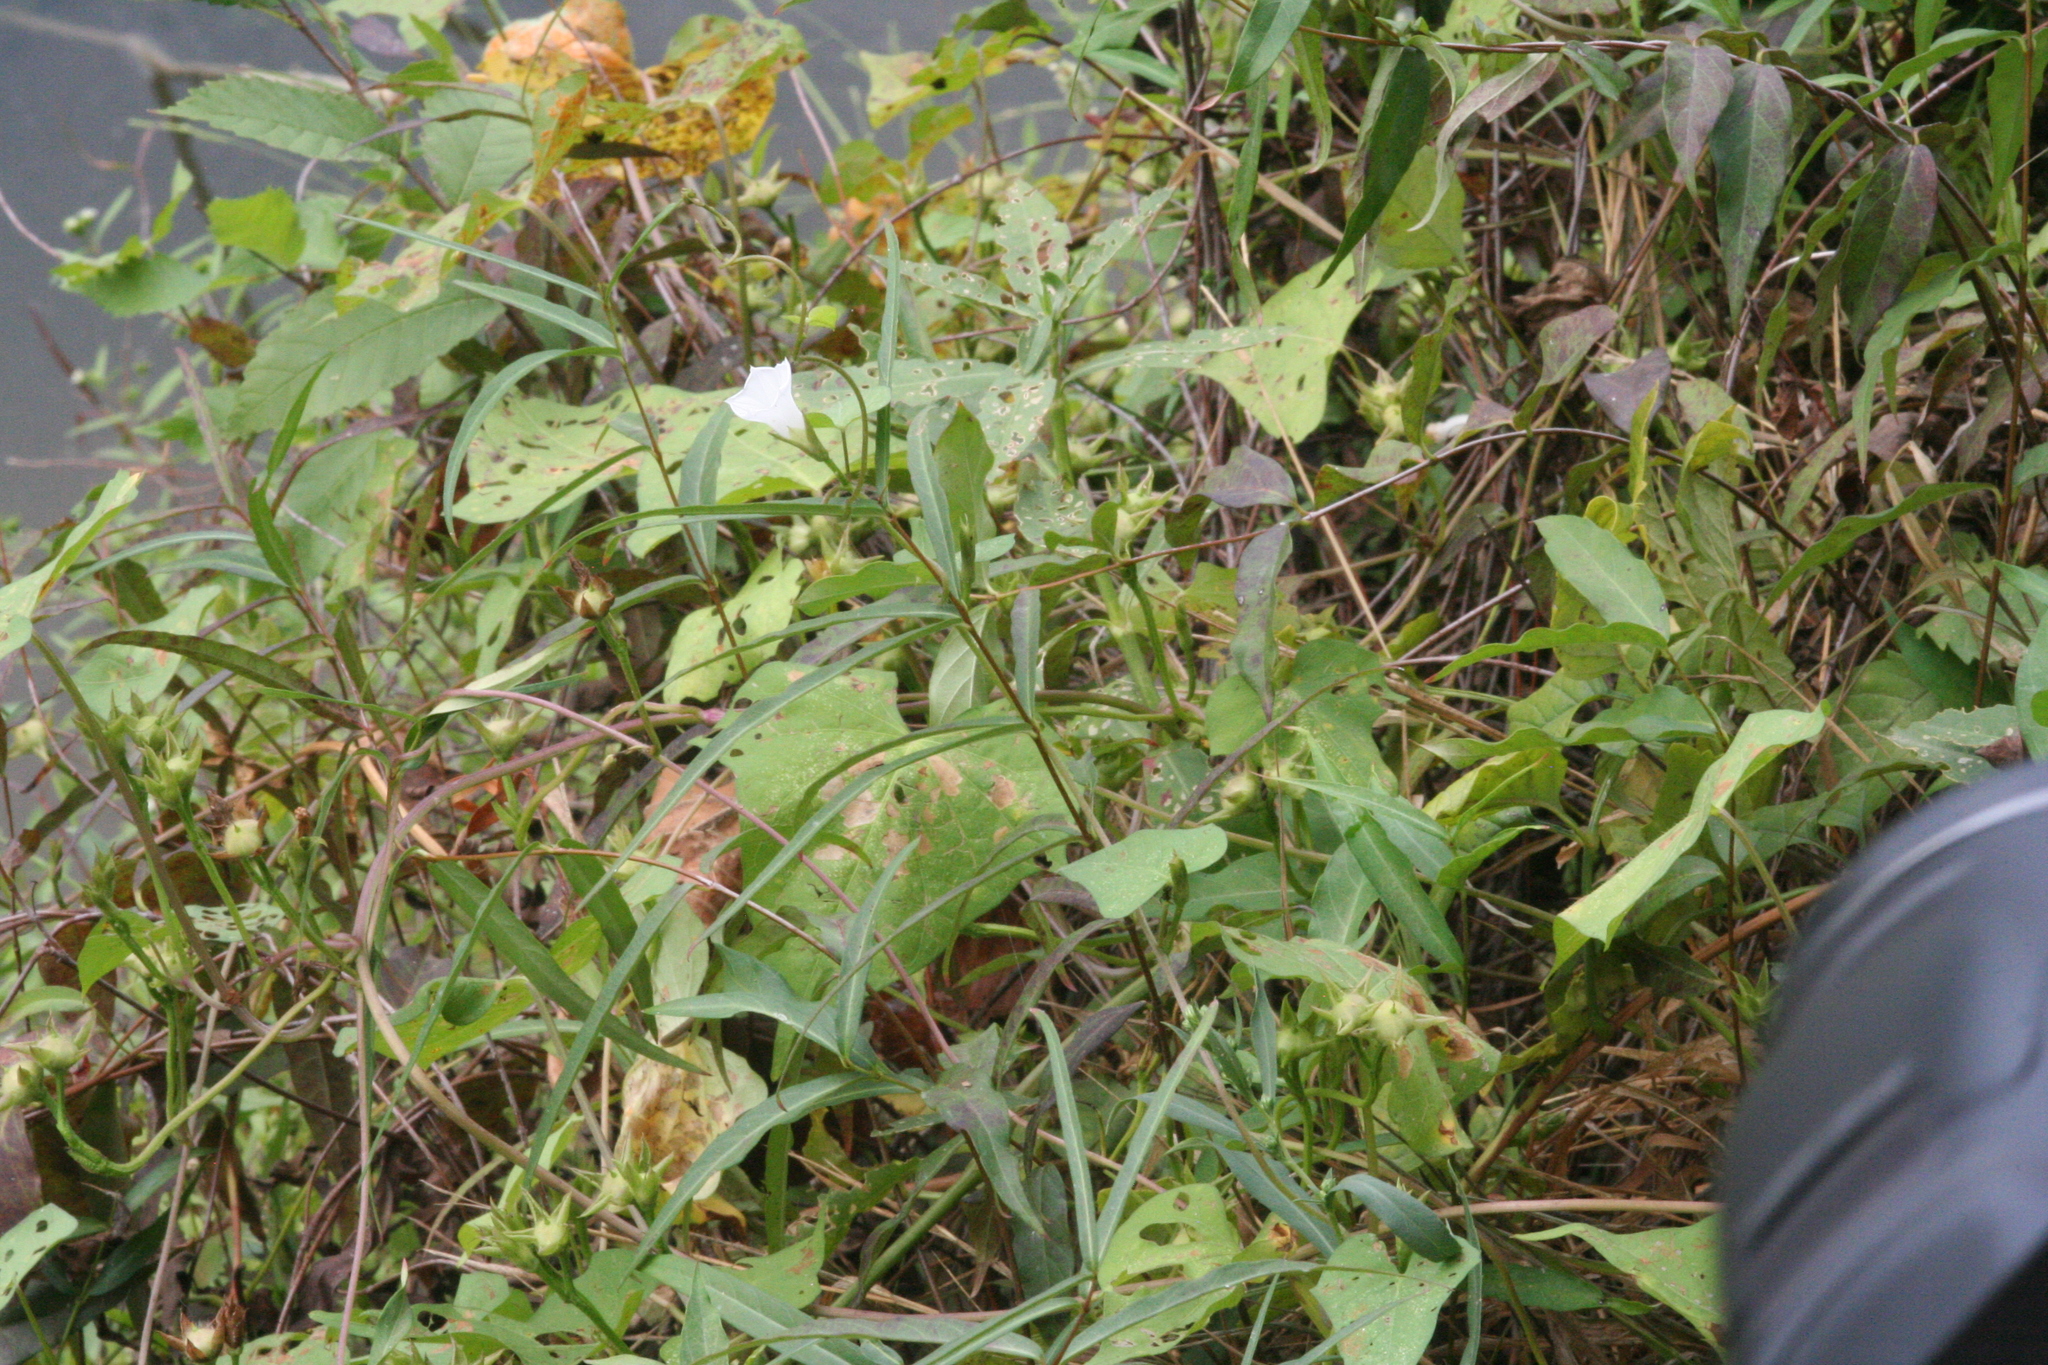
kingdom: Plantae
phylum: Tracheophyta
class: Magnoliopsida
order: Solanales
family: Convolvulaceae
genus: Ipomoea
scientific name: Ipomoea lacunosa
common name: White morning-glory
